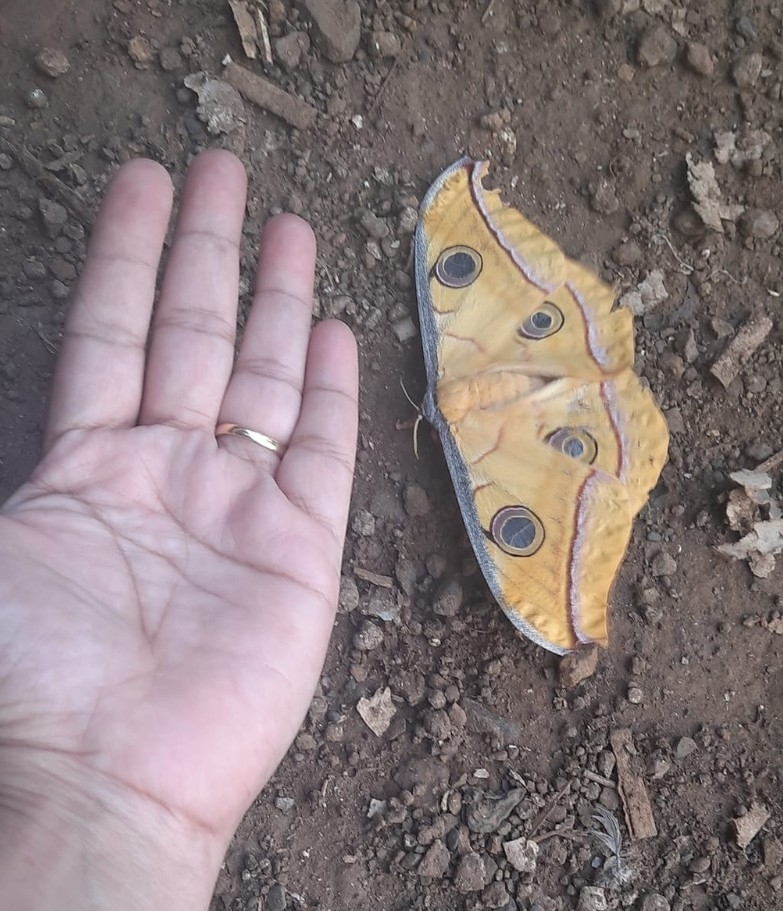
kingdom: Animalia
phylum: Arthropoda
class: Insecta
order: Lepidoptera
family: Saturniidae
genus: Antheraea
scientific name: Antheraea paphia
